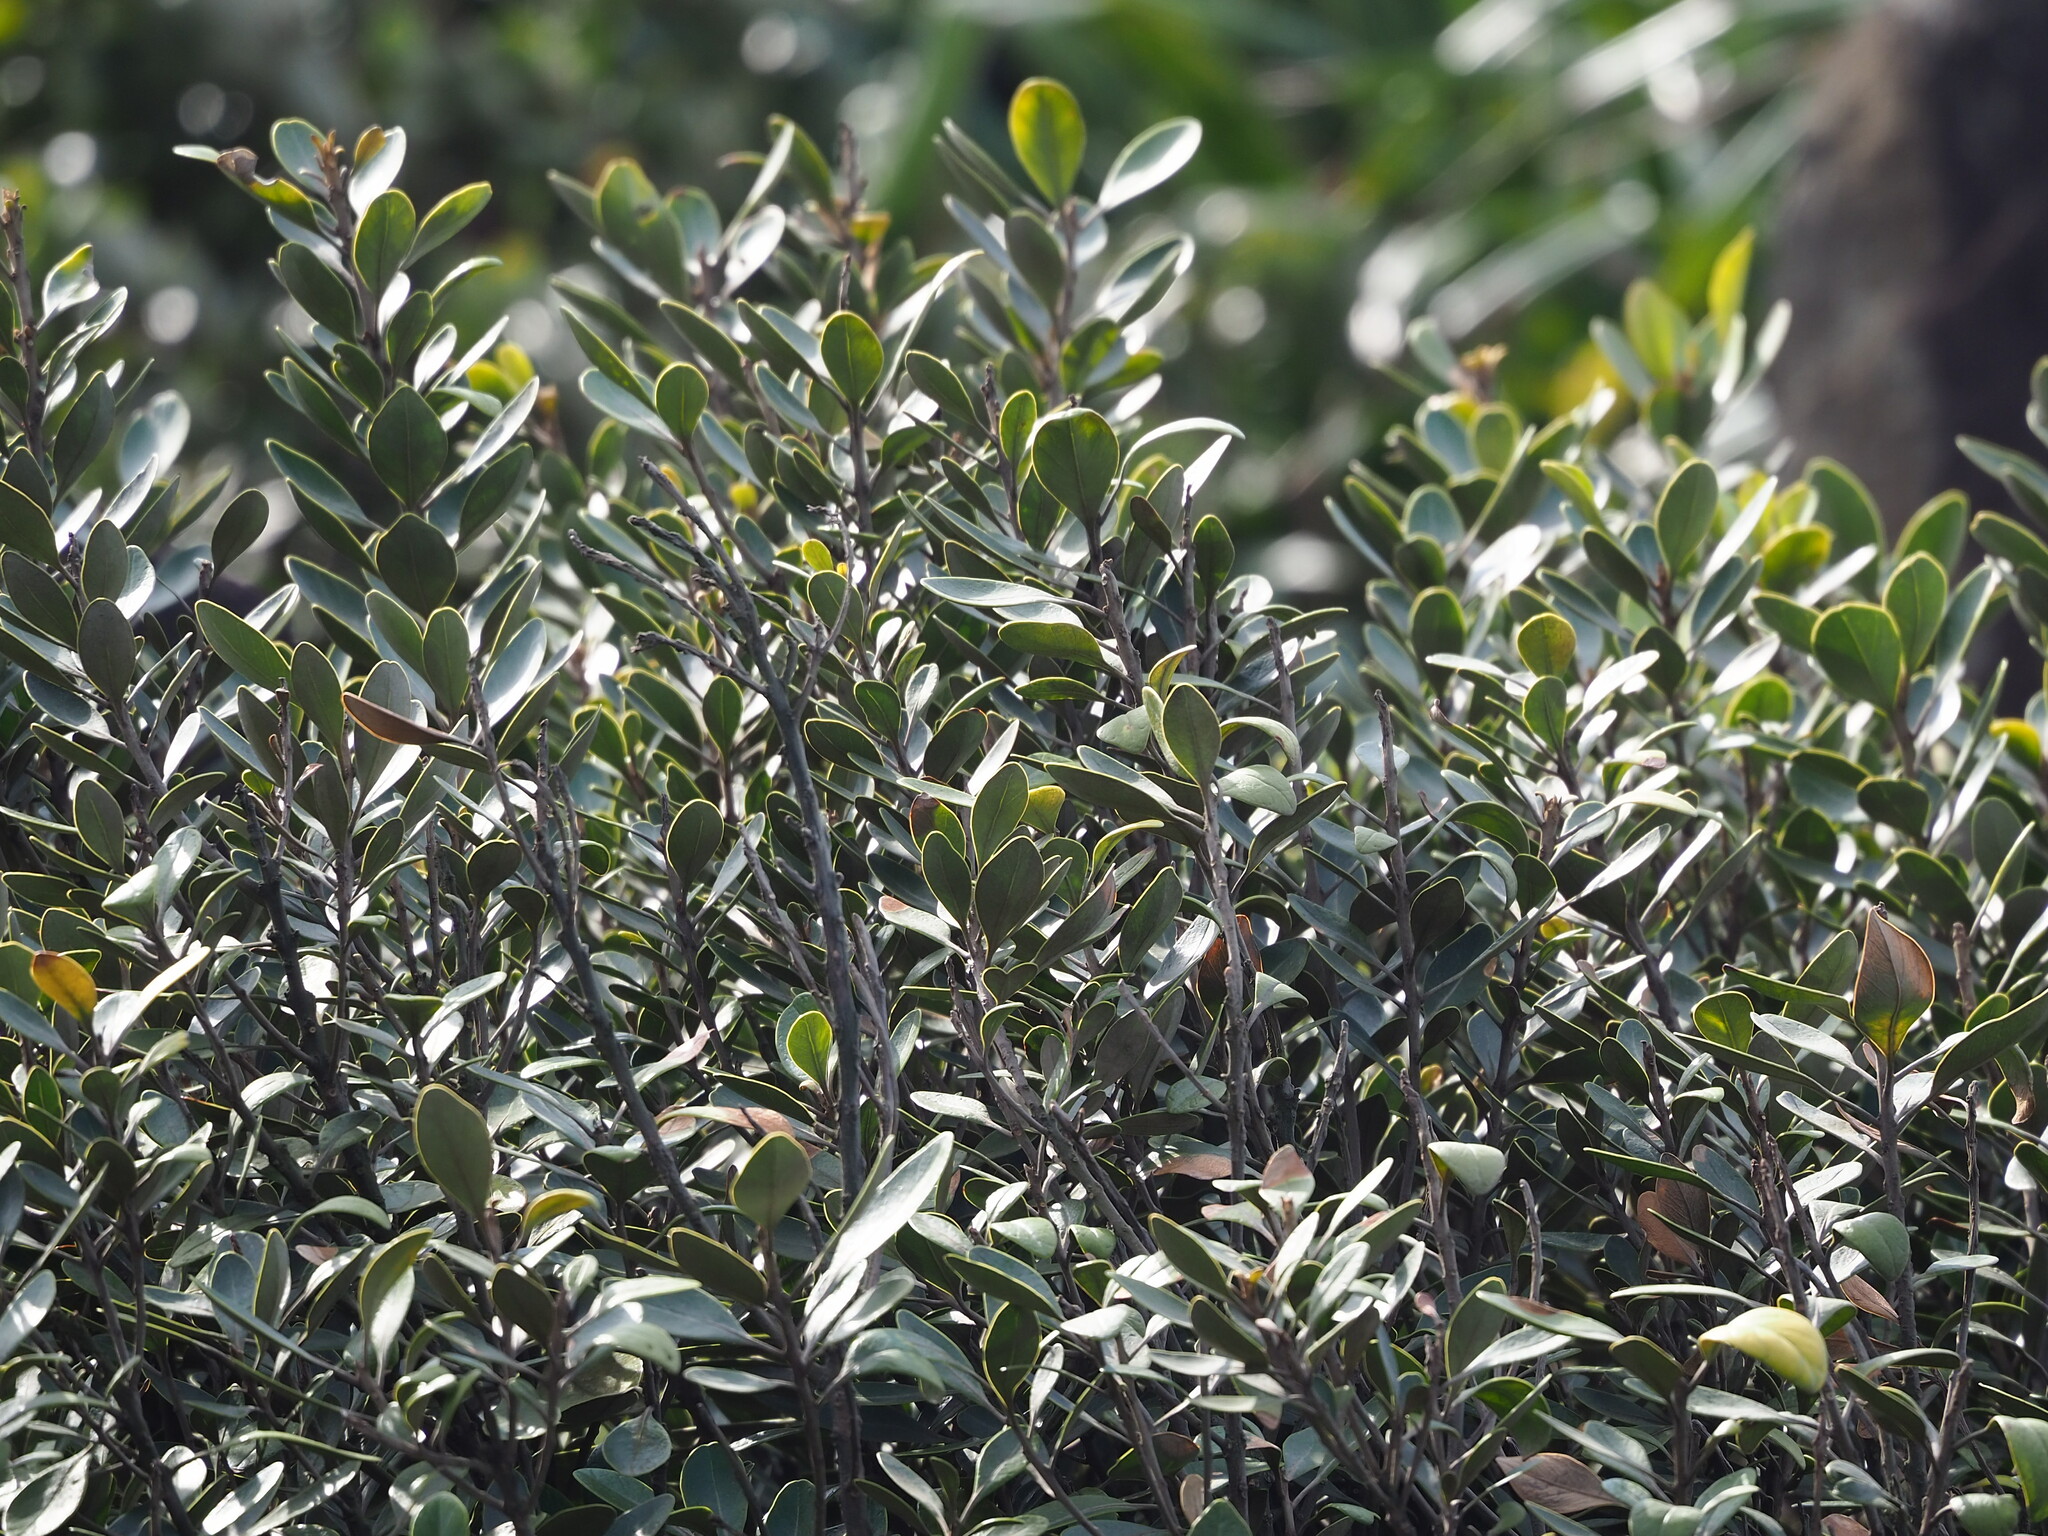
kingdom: Plantae
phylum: Tracheophyta
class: Magnoliopsida
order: Ericales
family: Sapotaceae
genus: Planchonella
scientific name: Planchonella obovata
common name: Black-ash
